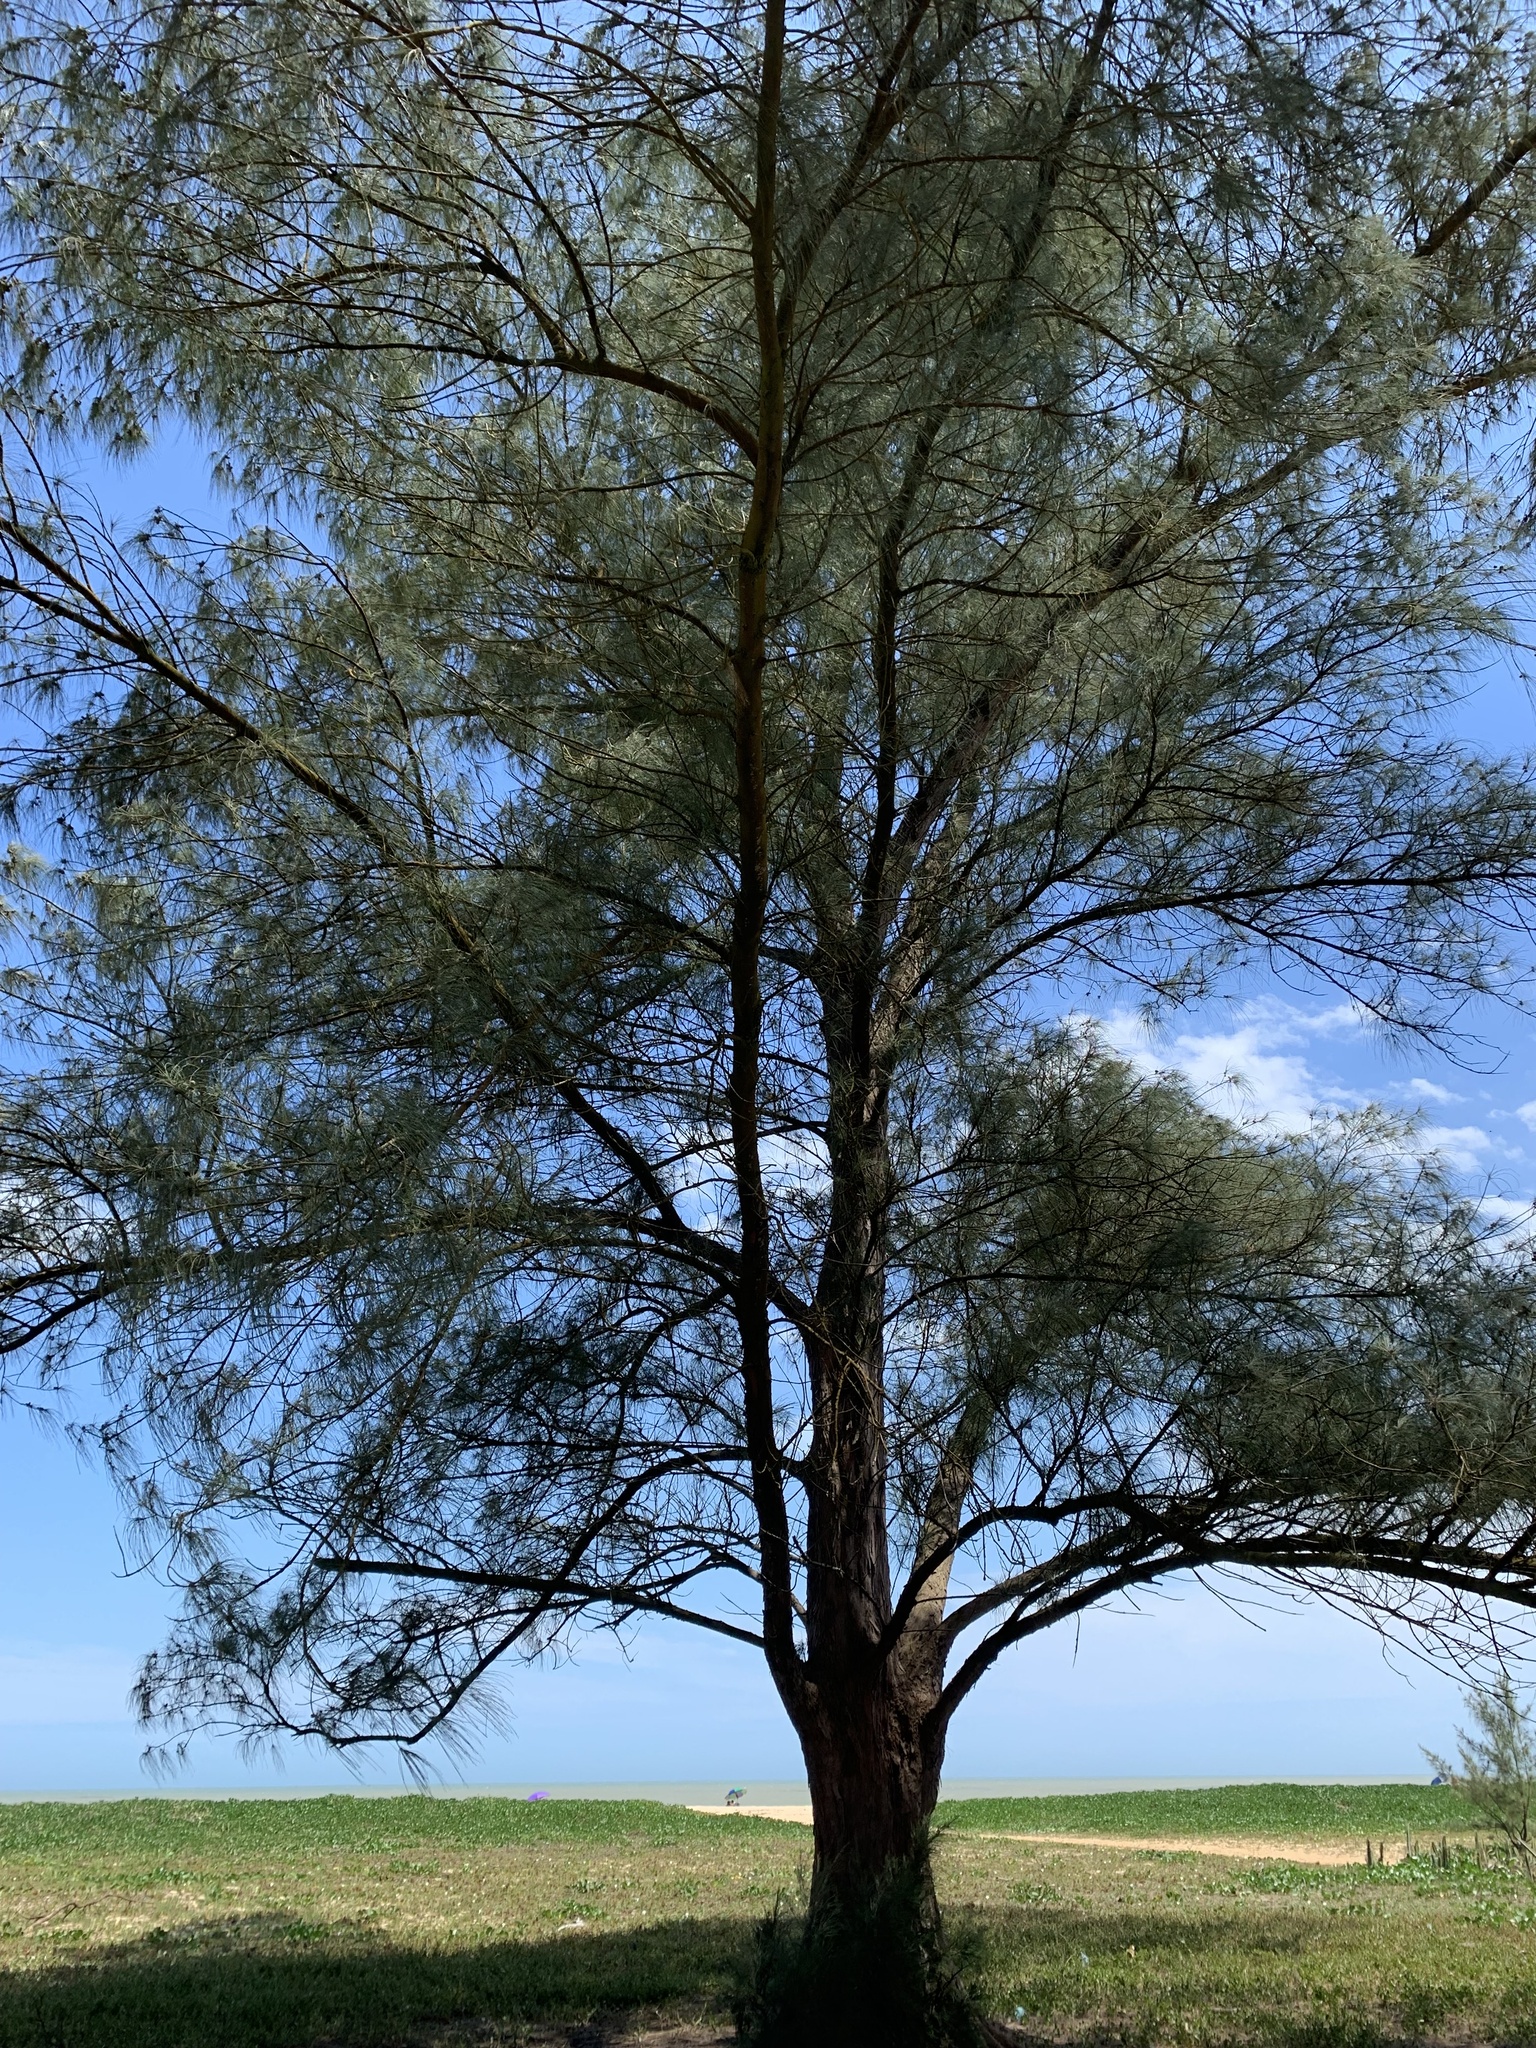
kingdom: Plantae
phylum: Tracheophyta
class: Magnoliopsida
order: Fagales
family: Casuarinaceae
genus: Casuarina
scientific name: Casuarina equisetifolia
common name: Beach sheoak
